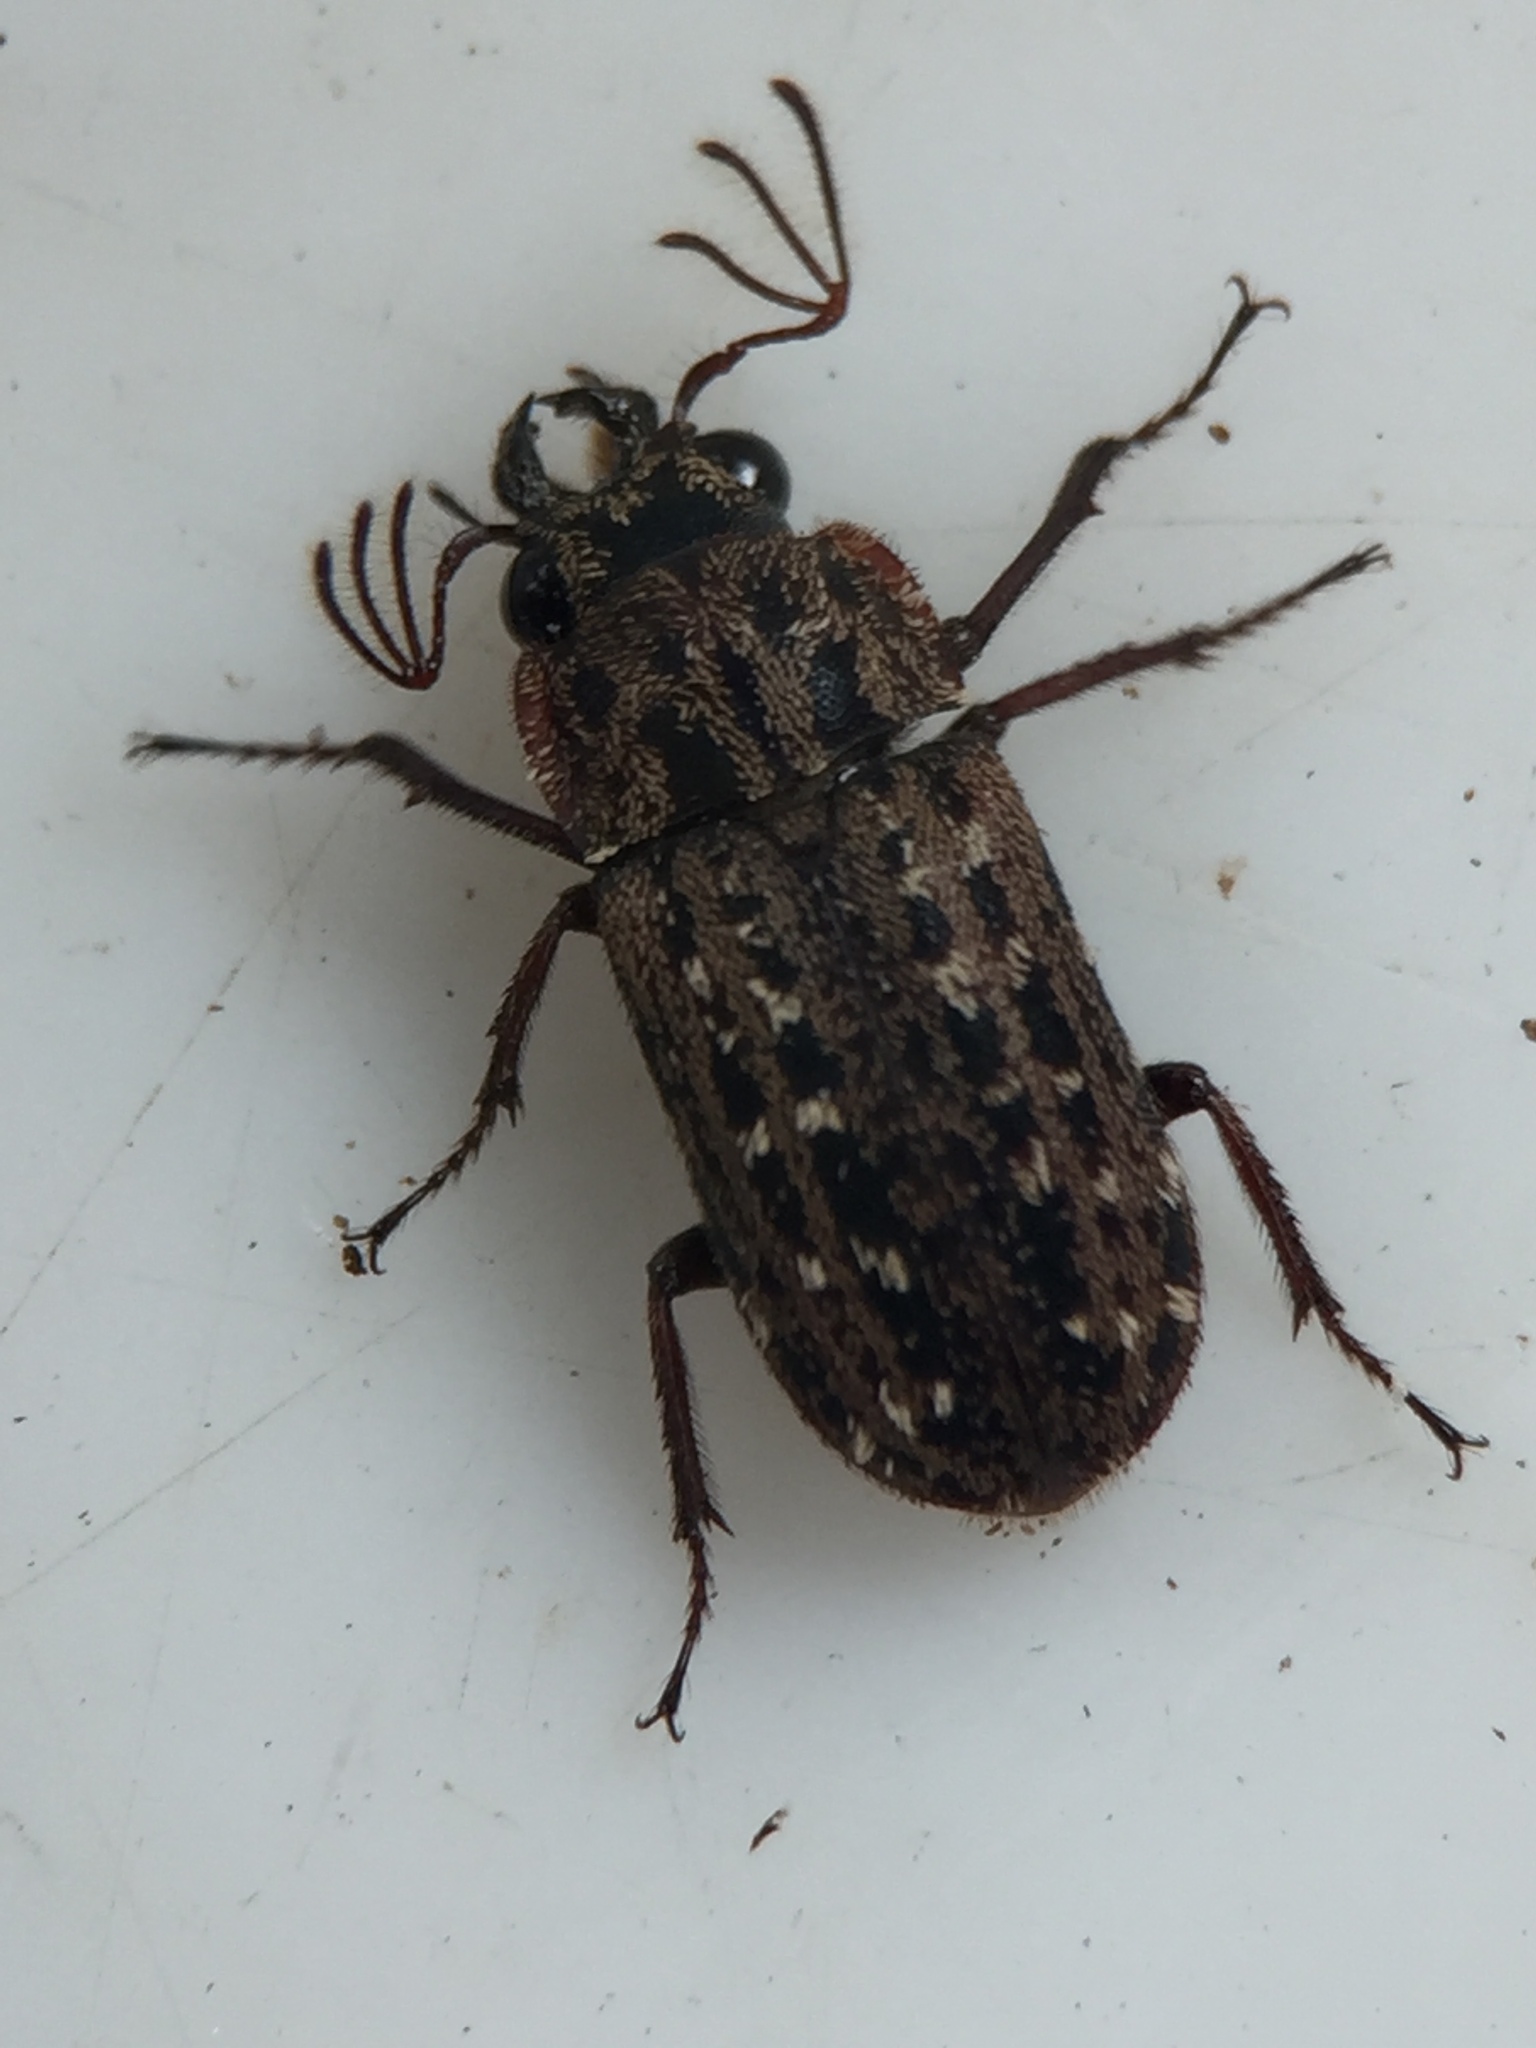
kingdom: Animalia
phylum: Arthropoda
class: Insecta
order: Coleoptera
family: Lucanidae
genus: Mitophyllus
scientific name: Mitophyllus arcuatus
